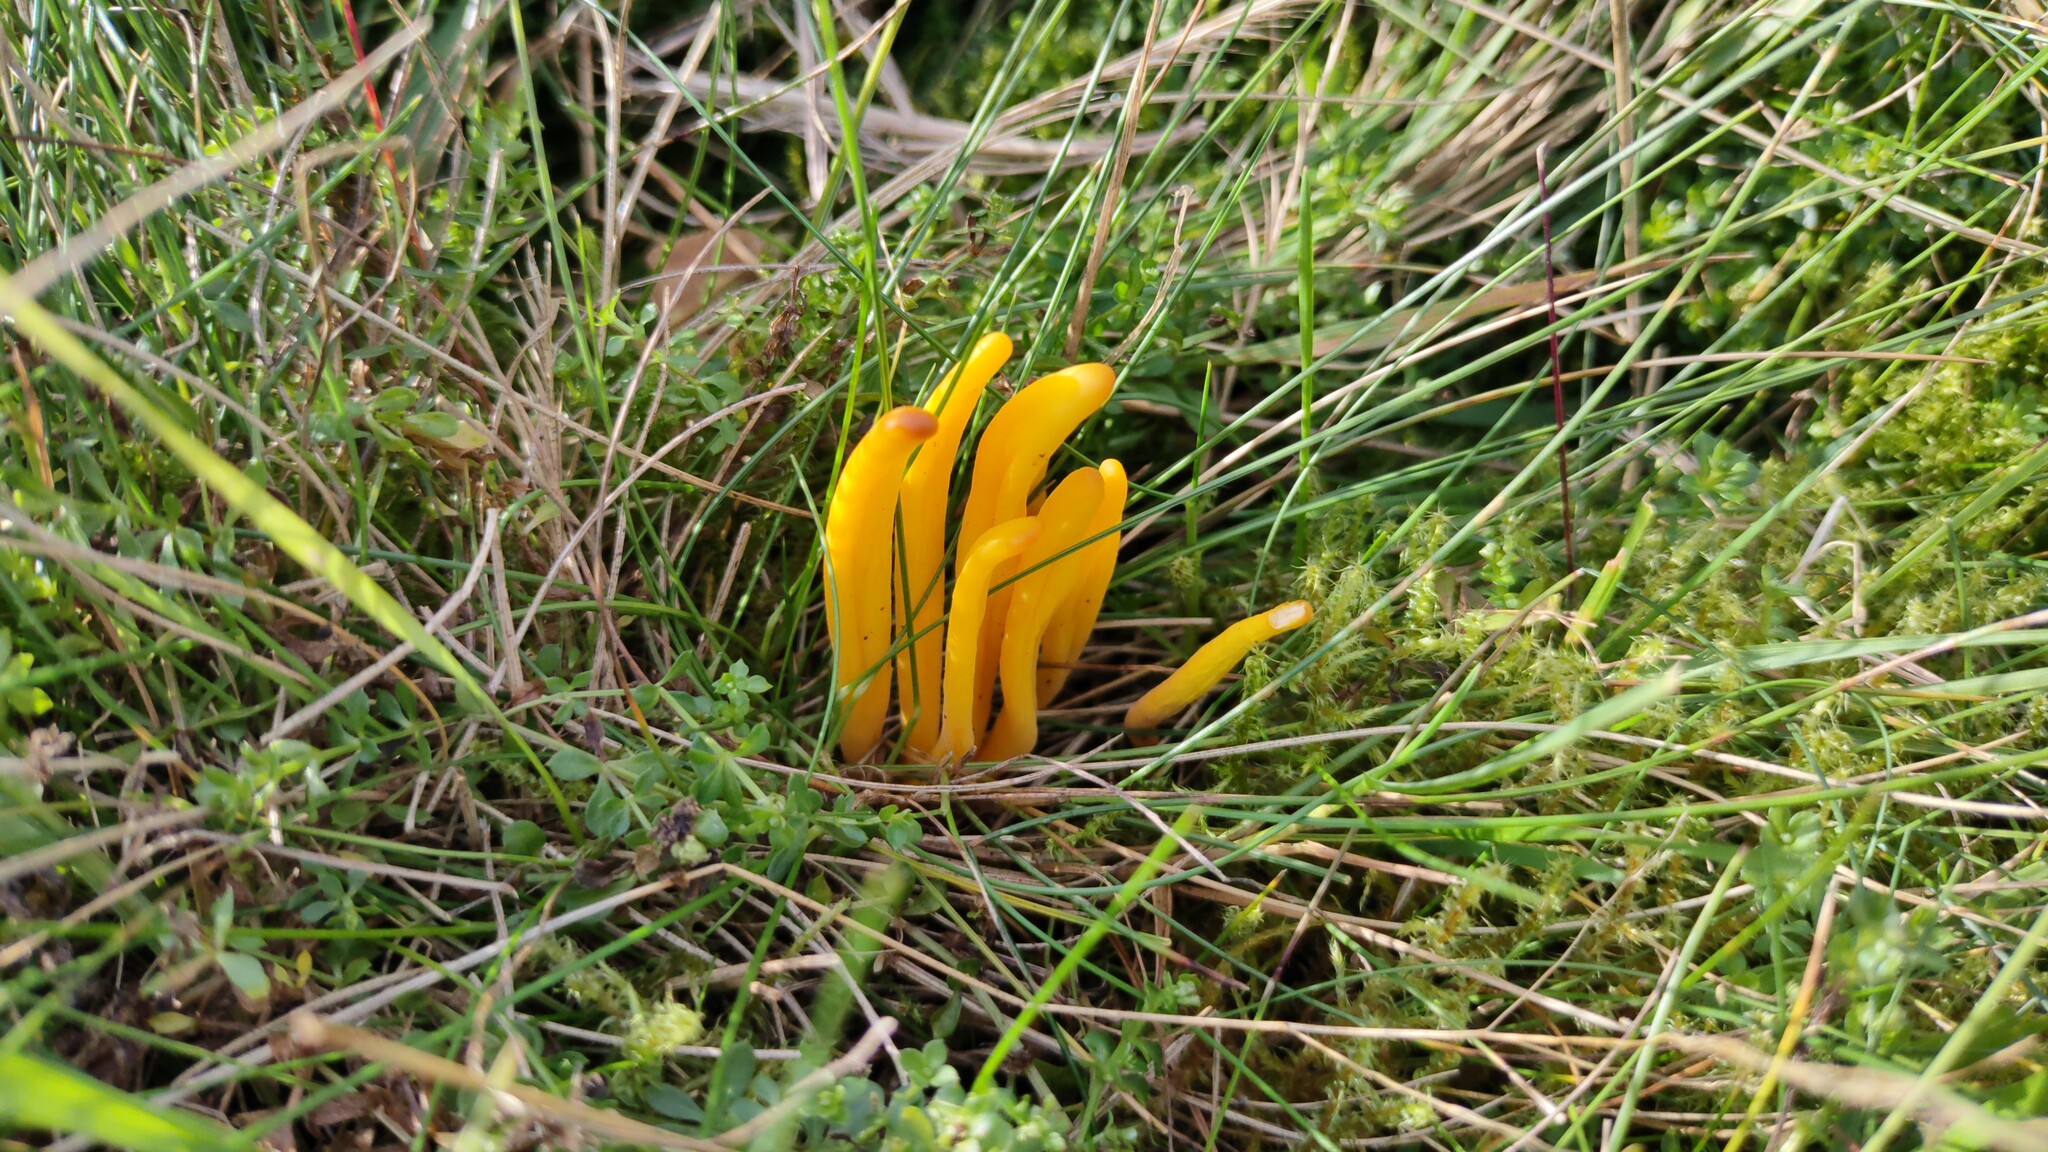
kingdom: Fungi
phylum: Basidiomycota
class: Agaricomycetes
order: Agaricales
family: Clavariaceae
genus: Clavulinopsis
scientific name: Clavulinopsis helvola
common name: Yellow club
